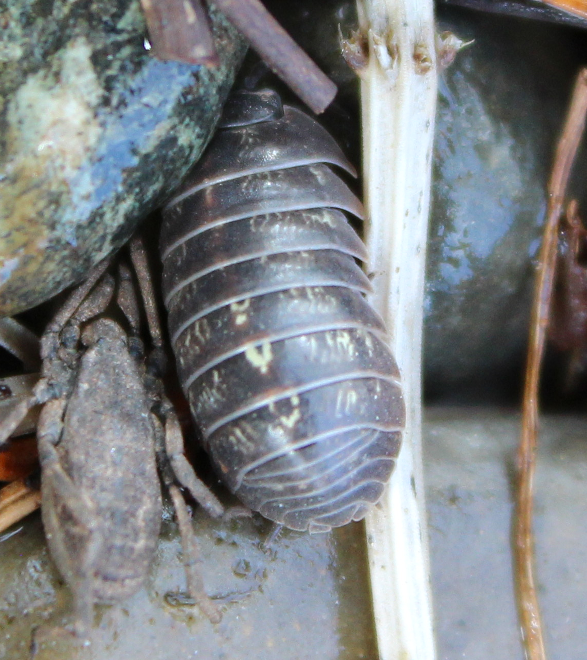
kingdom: Animalia
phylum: Arthropoda
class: Malacostraca
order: Isopoda
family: Armadillidiidae
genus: Armadillidium
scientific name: Armadillidium vulgare
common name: Common pill woodlouse
